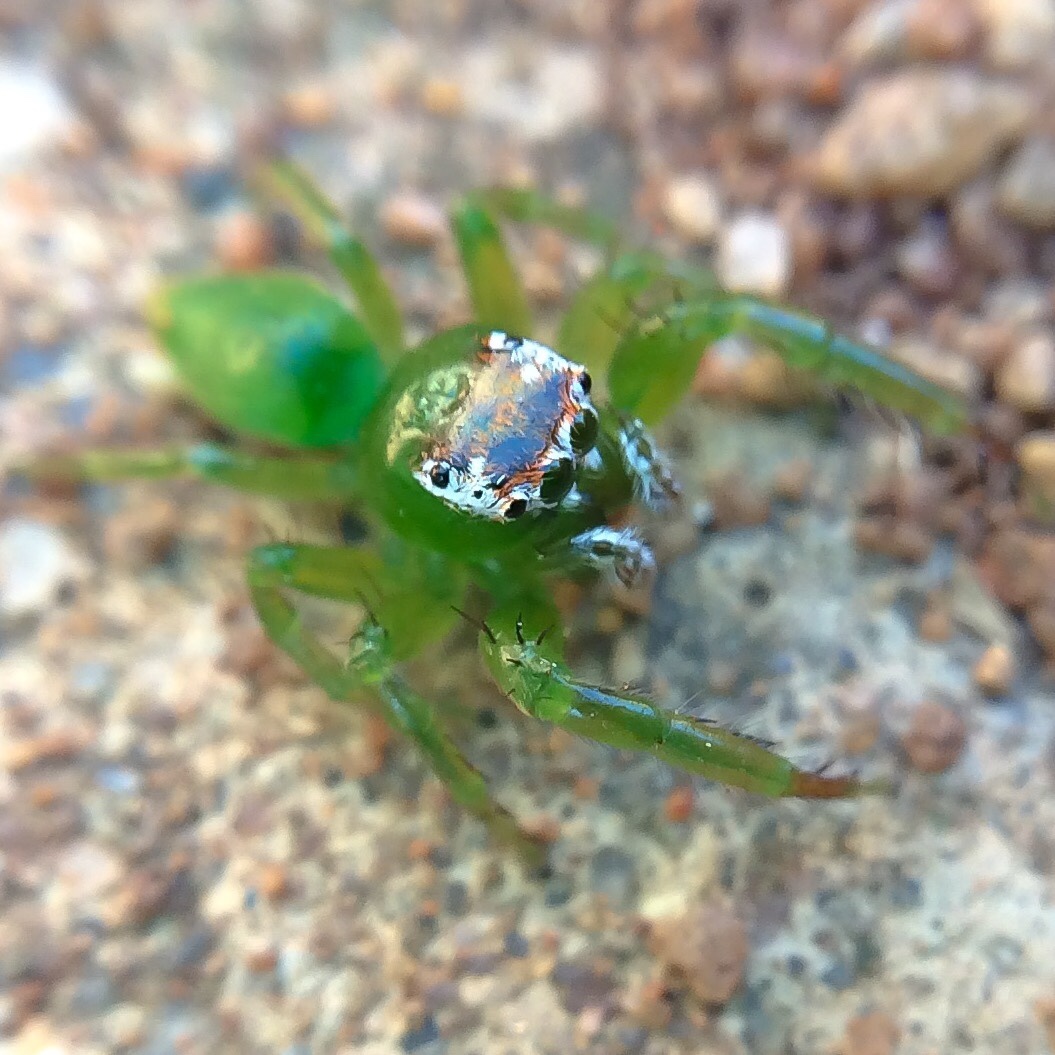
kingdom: Animalia
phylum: Arthropoda
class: Arachnida
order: Araneae
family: Salticidae
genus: Thyenula
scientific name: Thyenula juvenca
